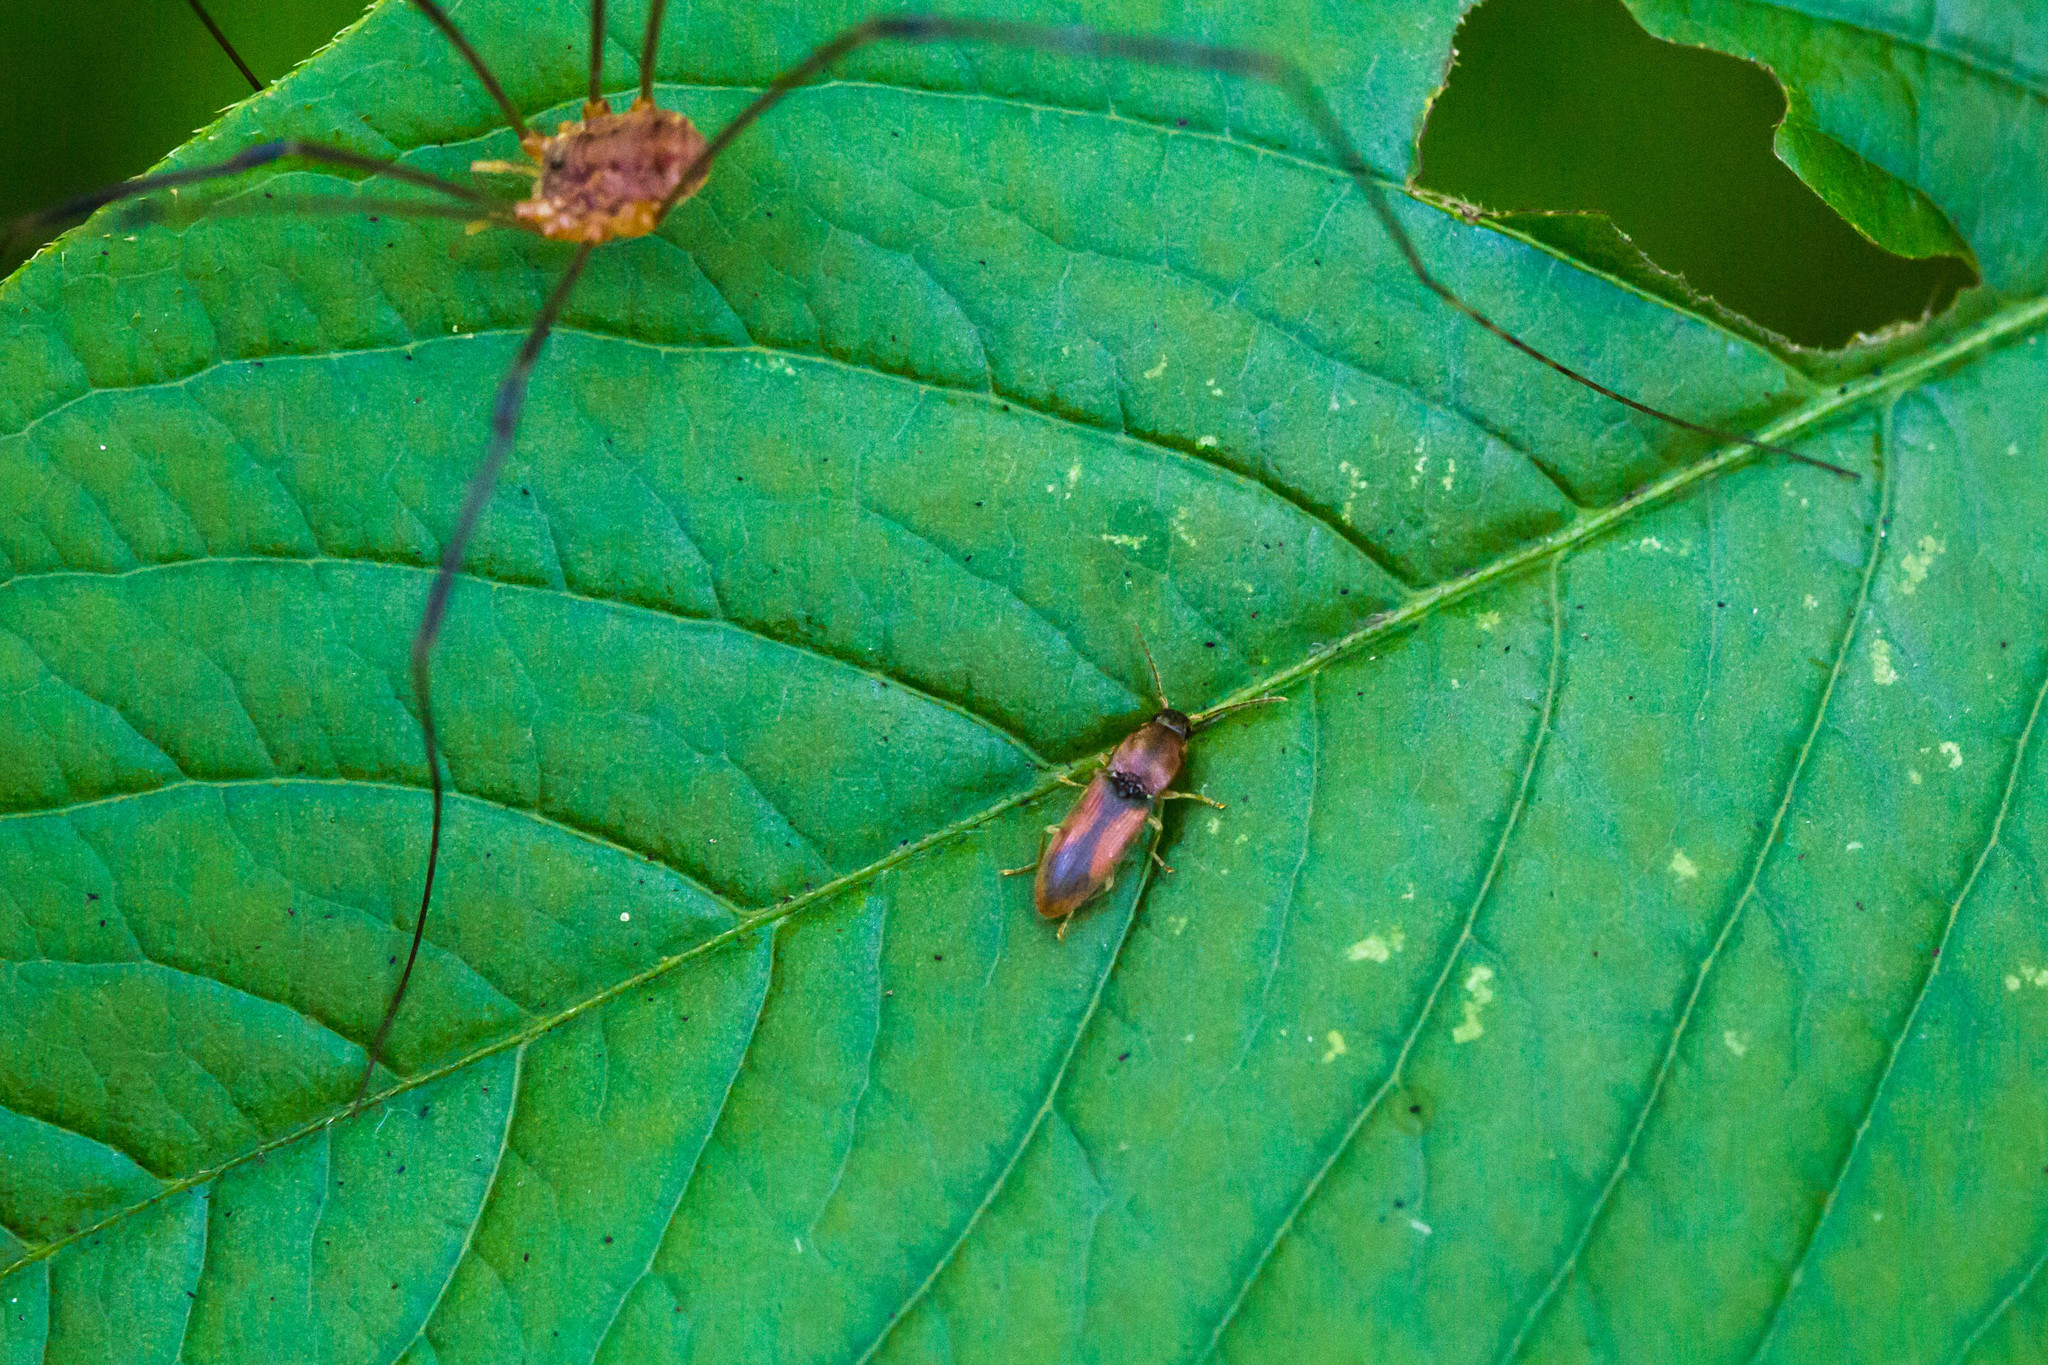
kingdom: Animalia
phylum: Arthropoda
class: Insecta
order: Coleoptera
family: Elateridae
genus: Monocrepidius
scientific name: Monocrepidius
